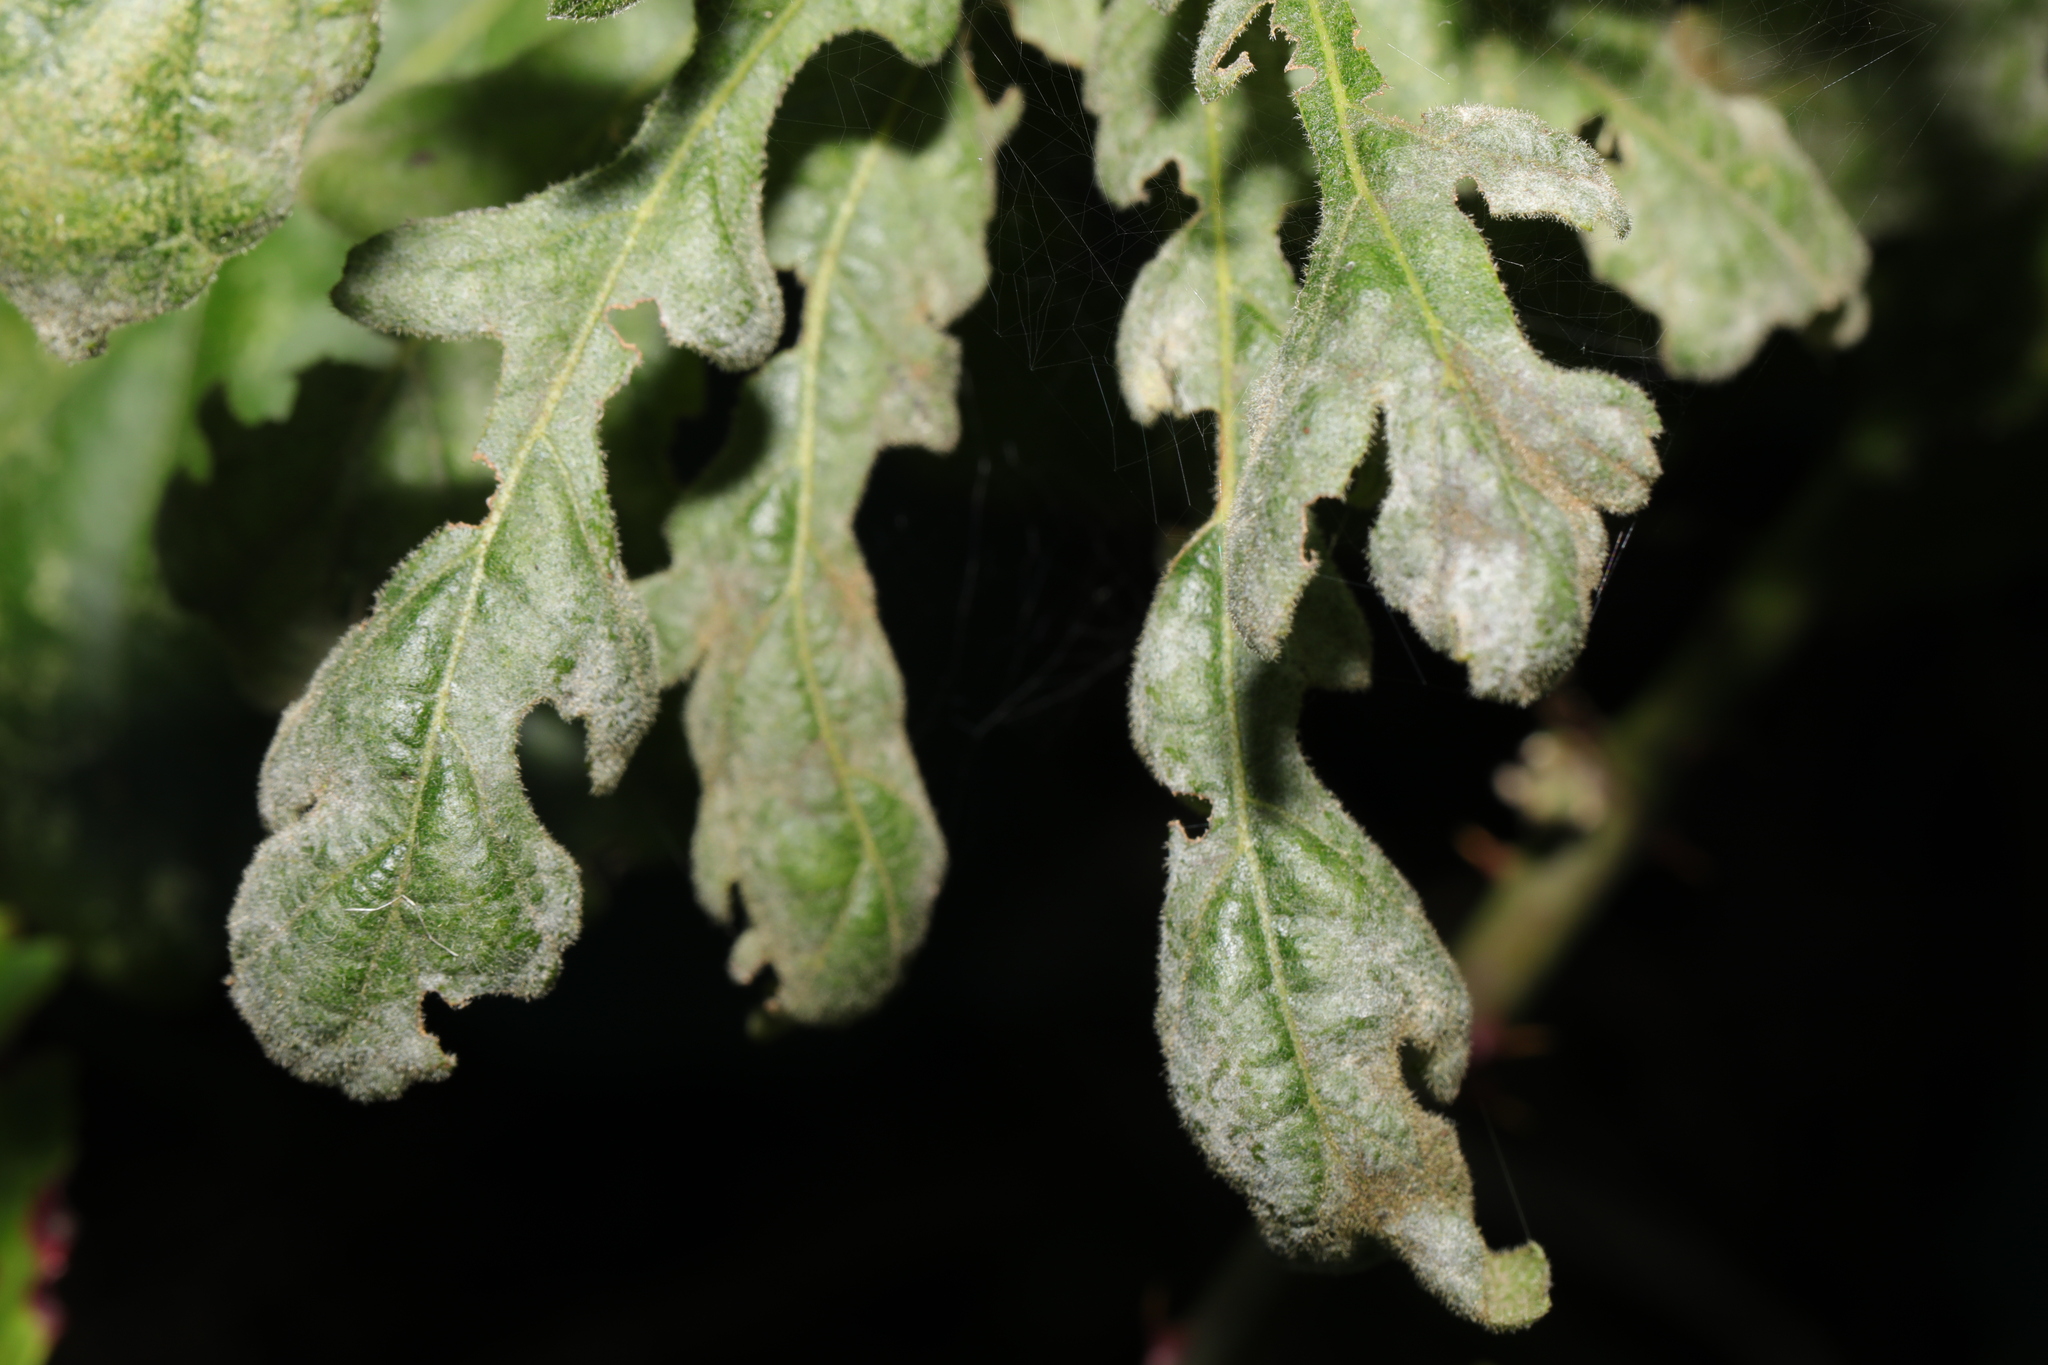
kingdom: Fungi
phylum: Ascomycota
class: Leotiomycetes
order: Helotiales
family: Erysiphaceae
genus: Erysiphe
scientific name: Erysiphe alphitoides
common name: Oak mildew
